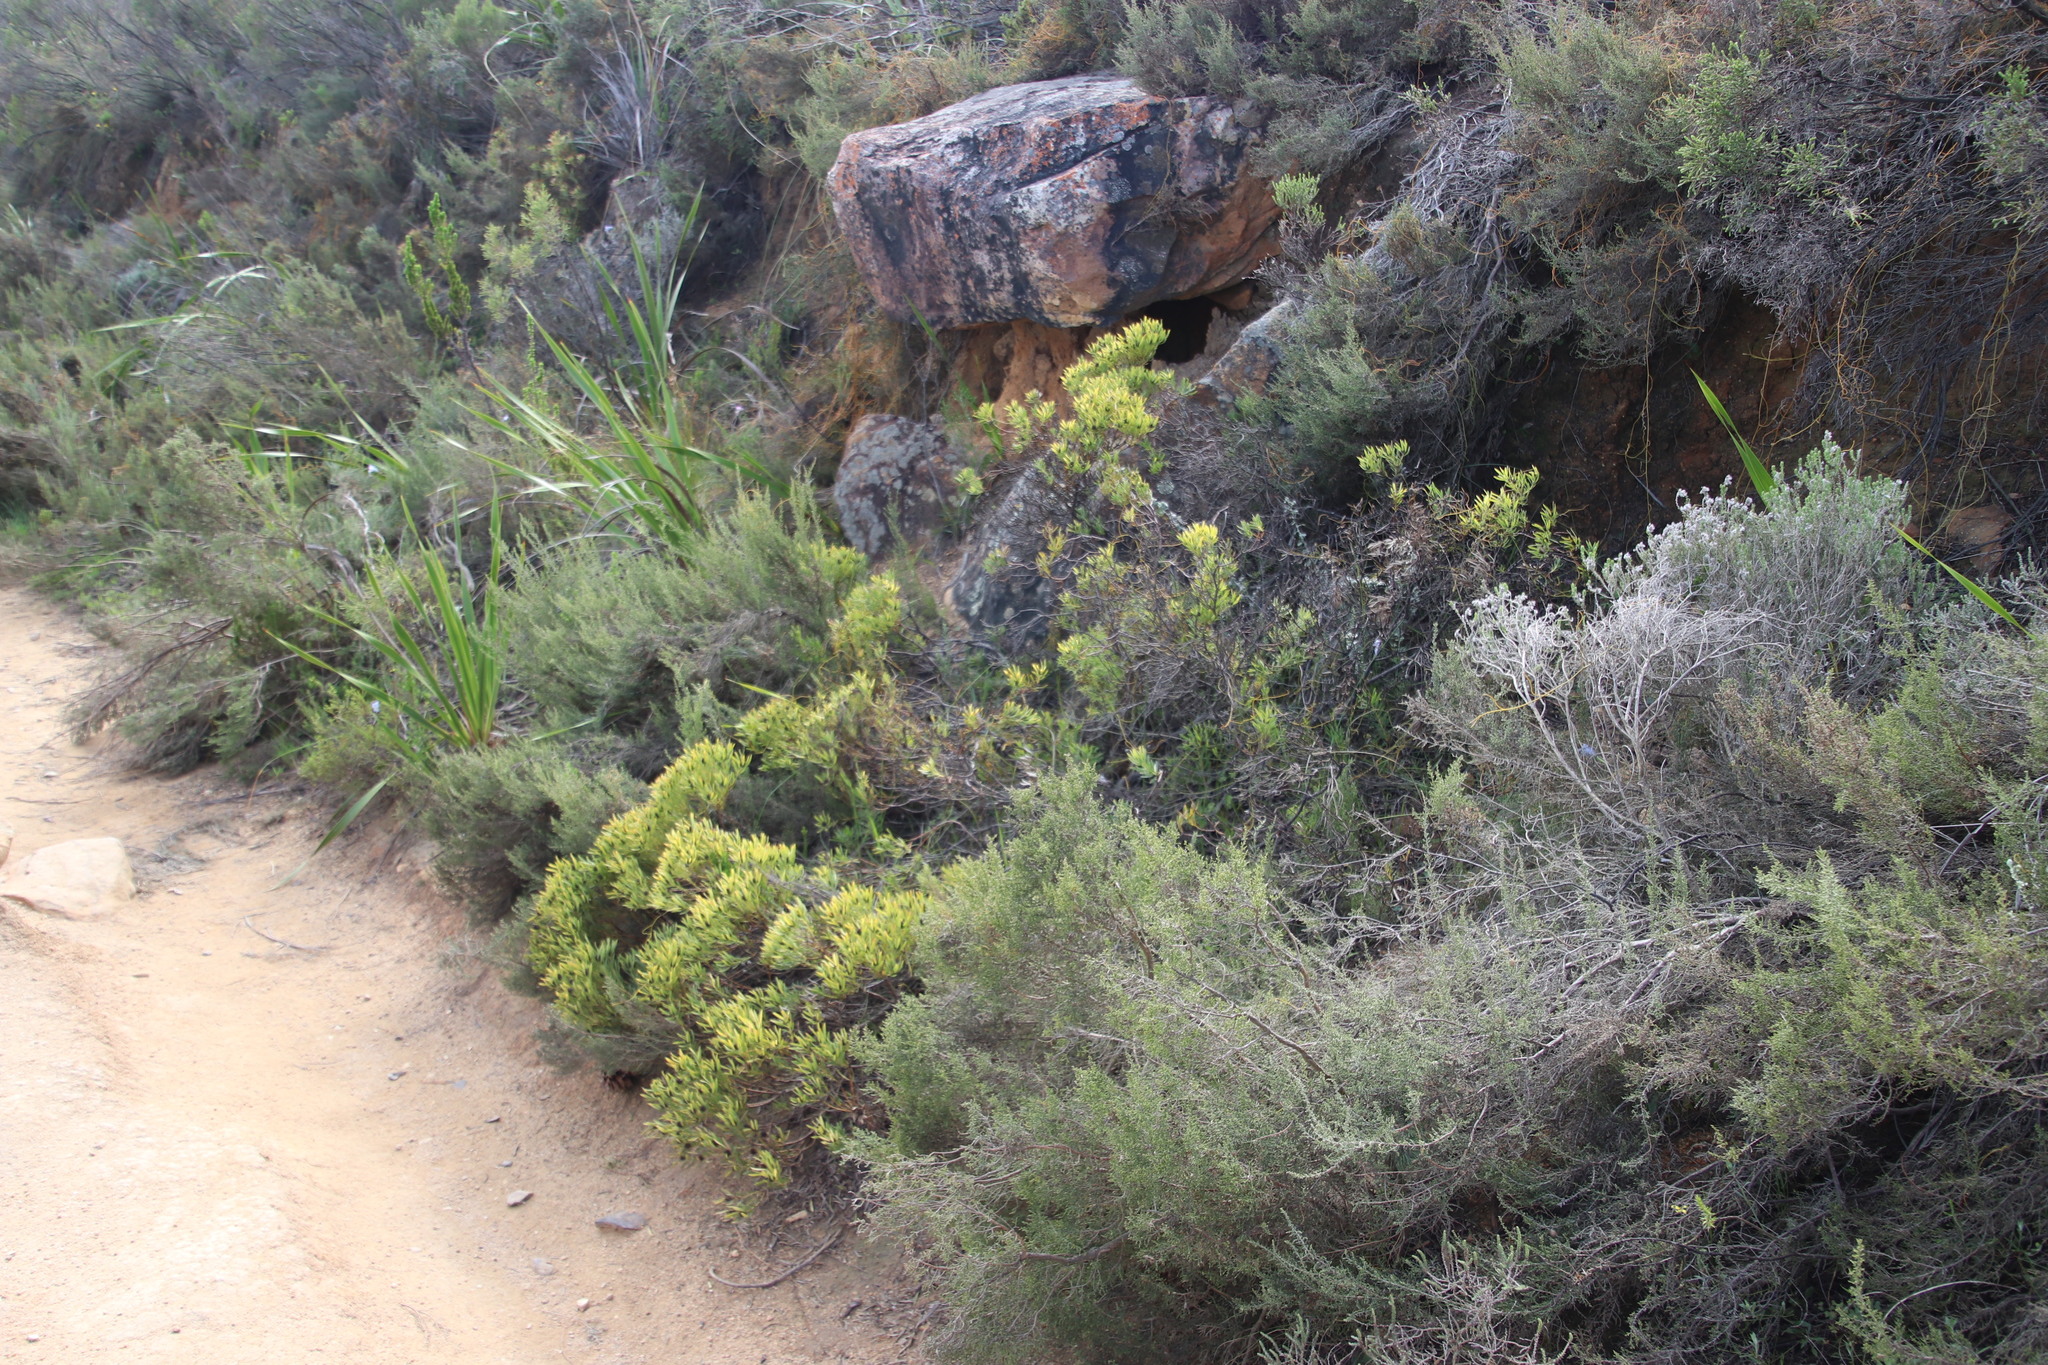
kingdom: Plantae
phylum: Tracheophyta
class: Magnoliopsida
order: Proteales
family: Proteaceae
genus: Leucadendron
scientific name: Leucadendron salignum
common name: Common sunshine conebush
